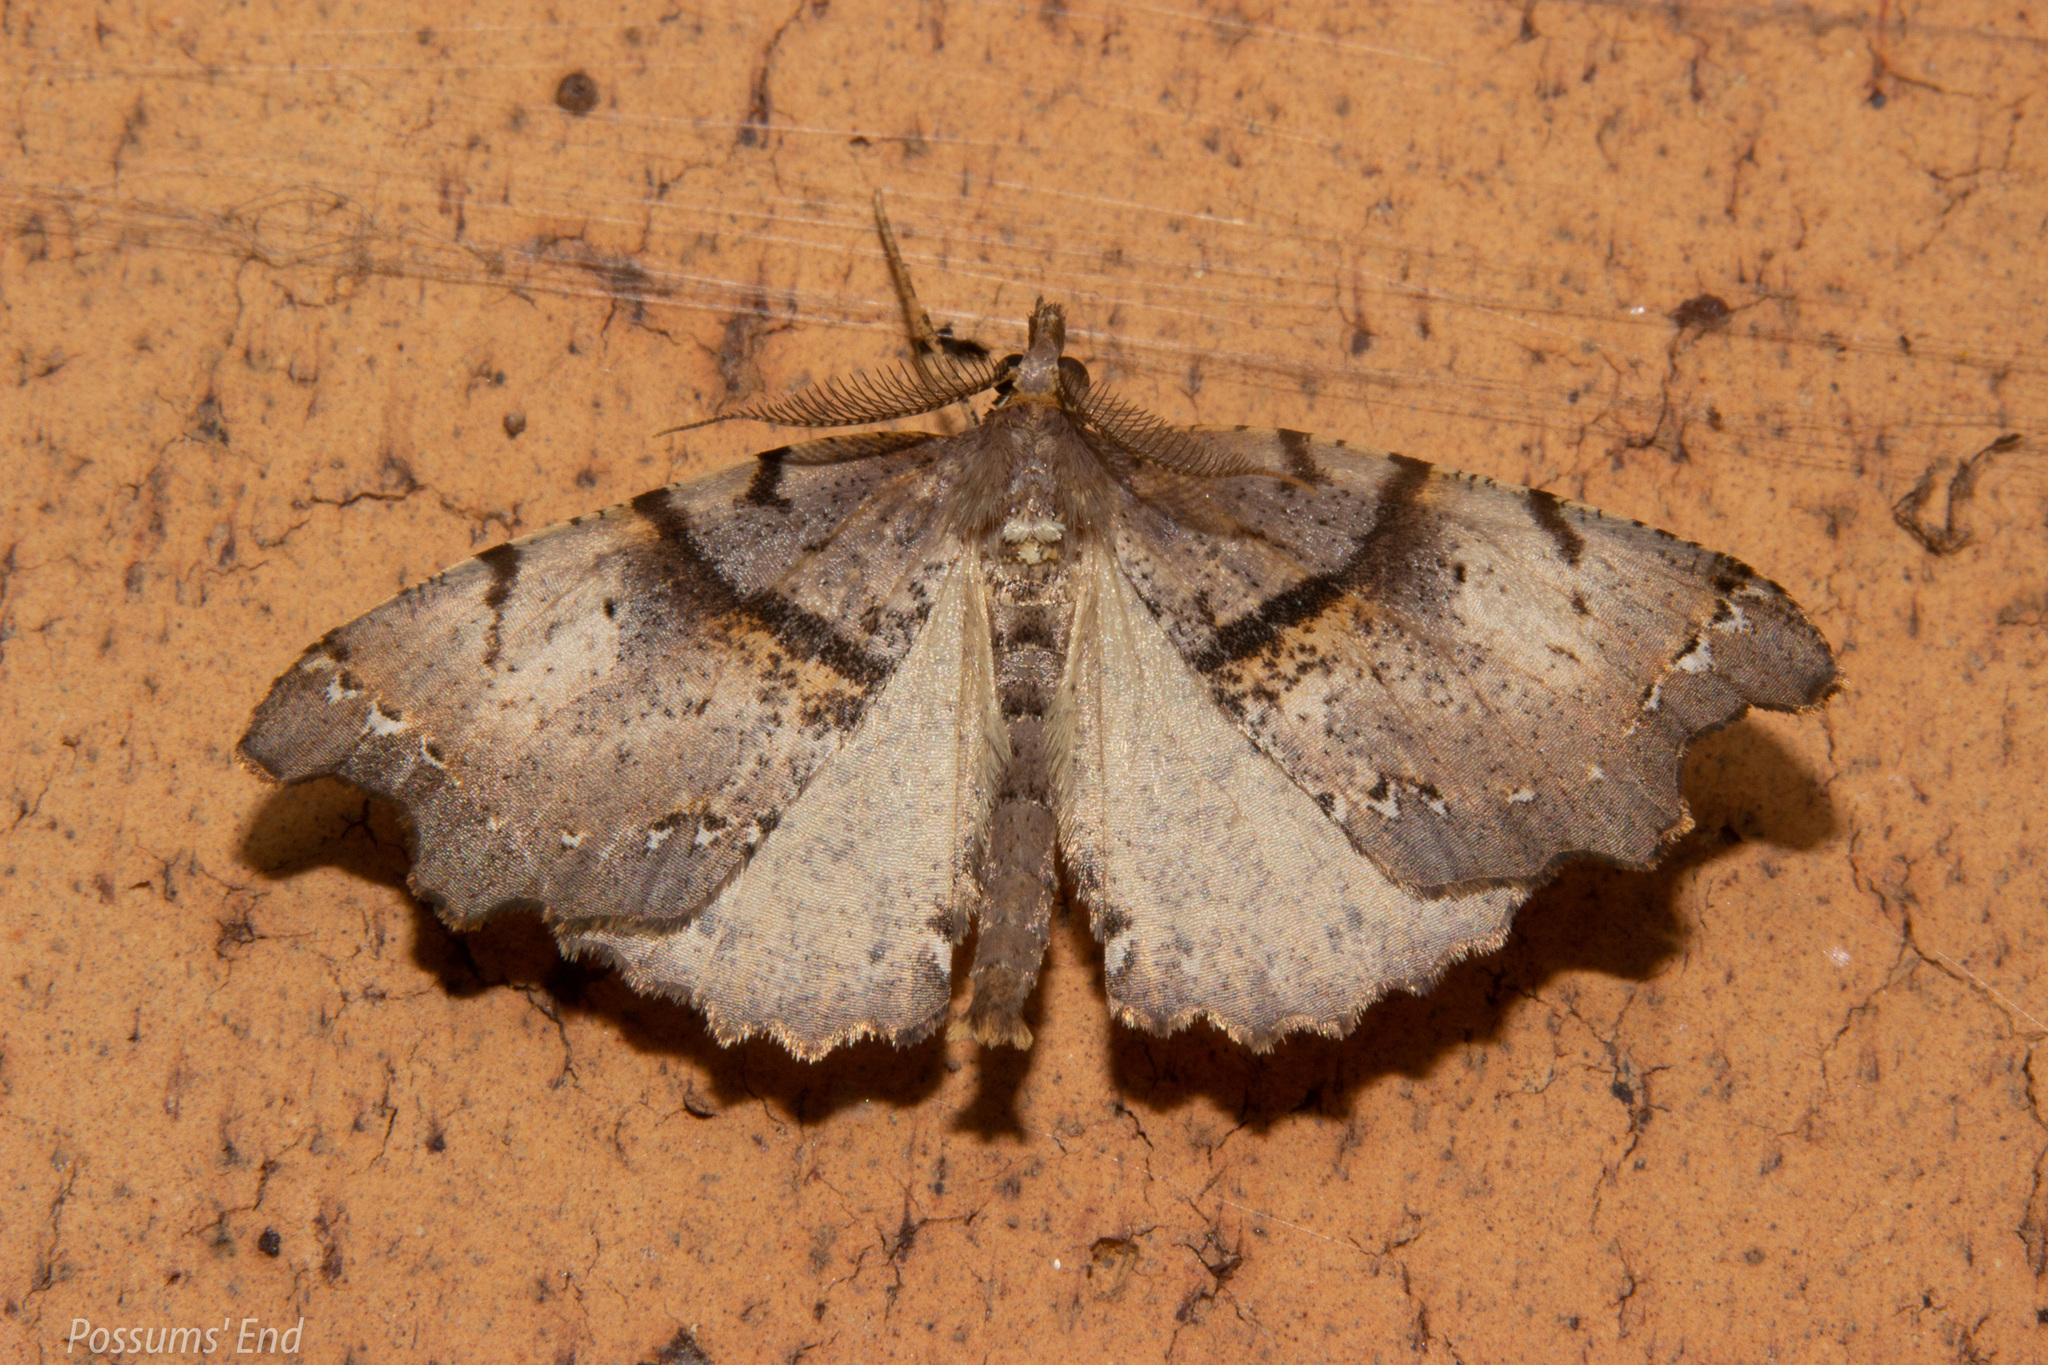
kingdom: Animalia
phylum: Arthropoda
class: Insecta
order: Lepidoptera
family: Geometridae
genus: Chalastra
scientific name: Chalastra pellurgata
